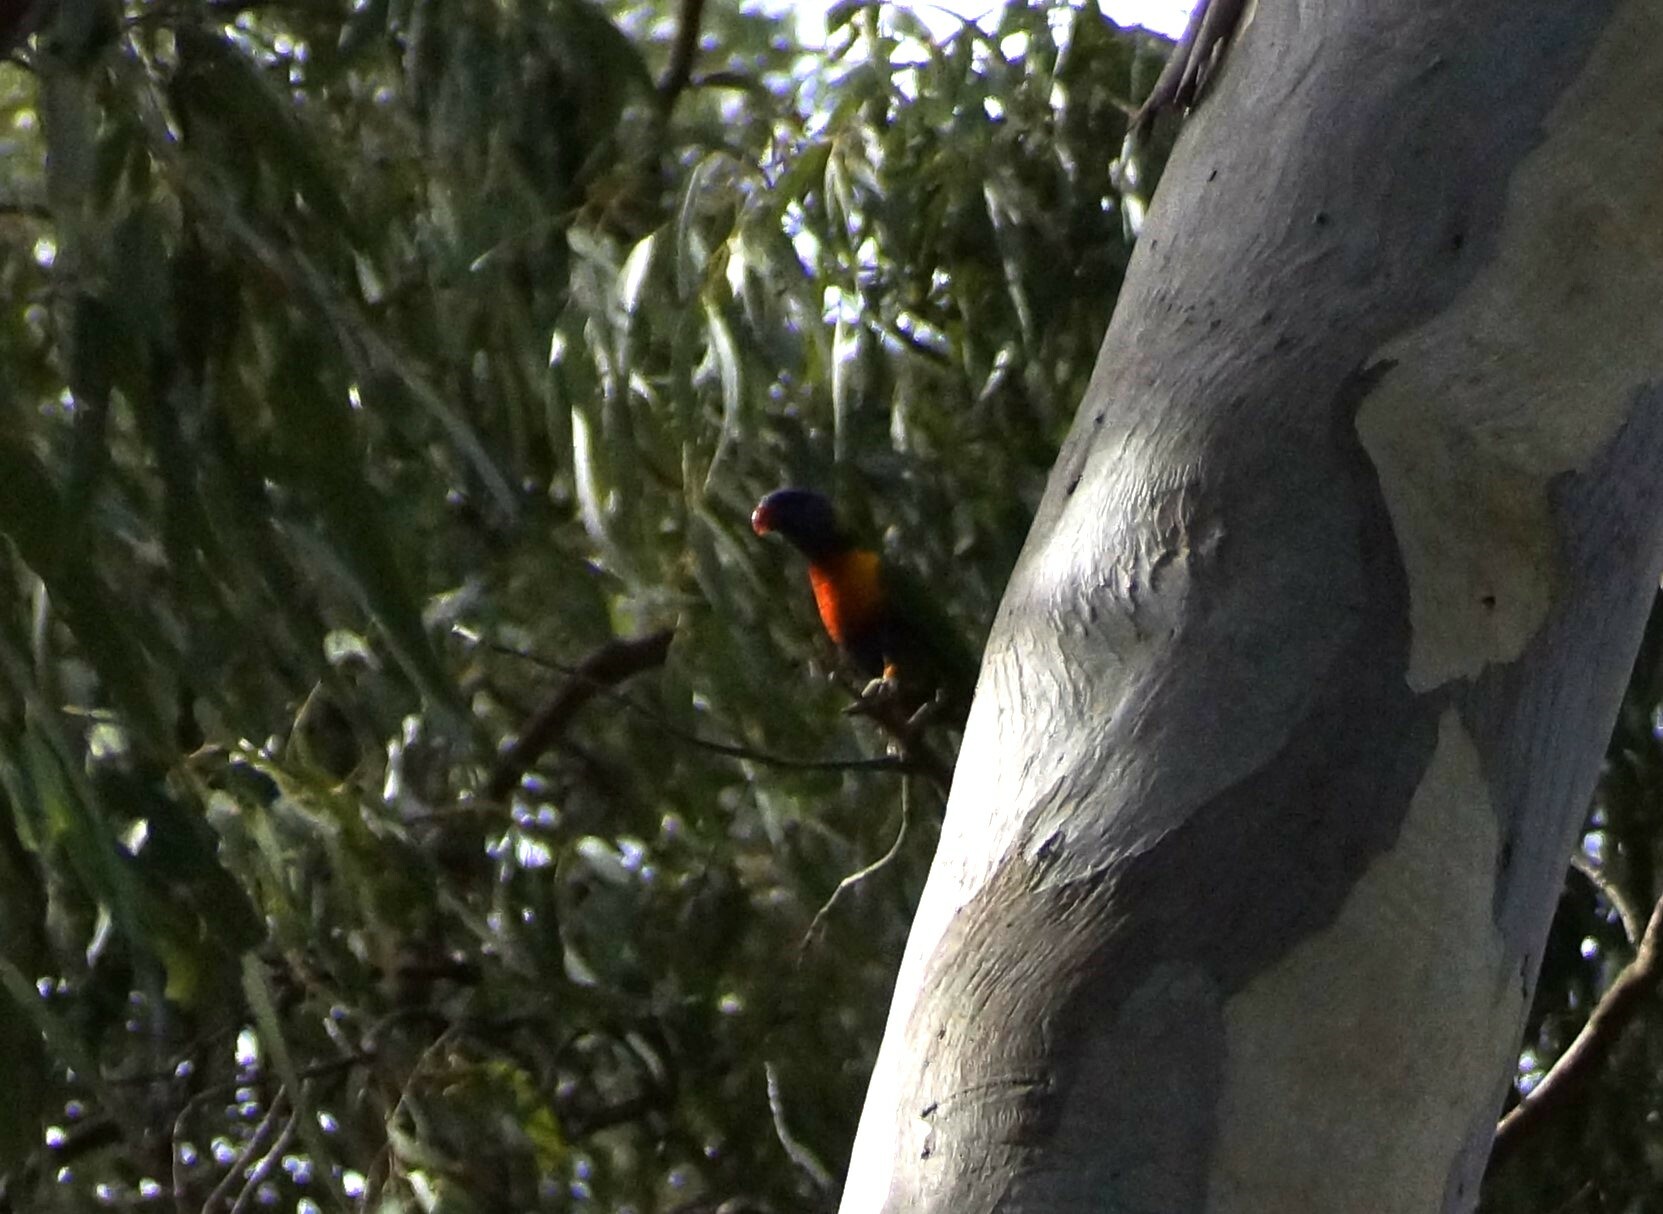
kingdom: Animalia
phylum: Chordata
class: Aves
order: Psittaciformes
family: Psittacidae
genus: Trichoglossus
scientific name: Trichoglossus haematodus
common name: Coconut lorikeet
